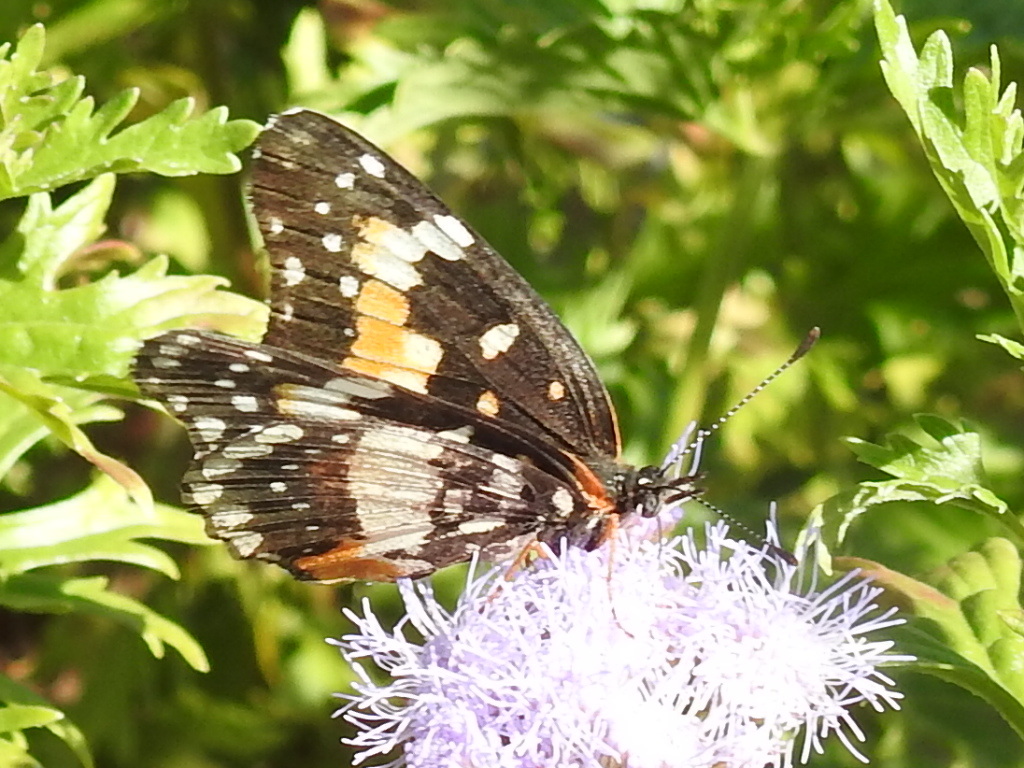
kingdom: Animalia
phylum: Arthropoda
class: Insecta
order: Lepidoptera
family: Nymphalidae
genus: Chlosyne
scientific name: Chlosyne lacinia
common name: Bordered patch
